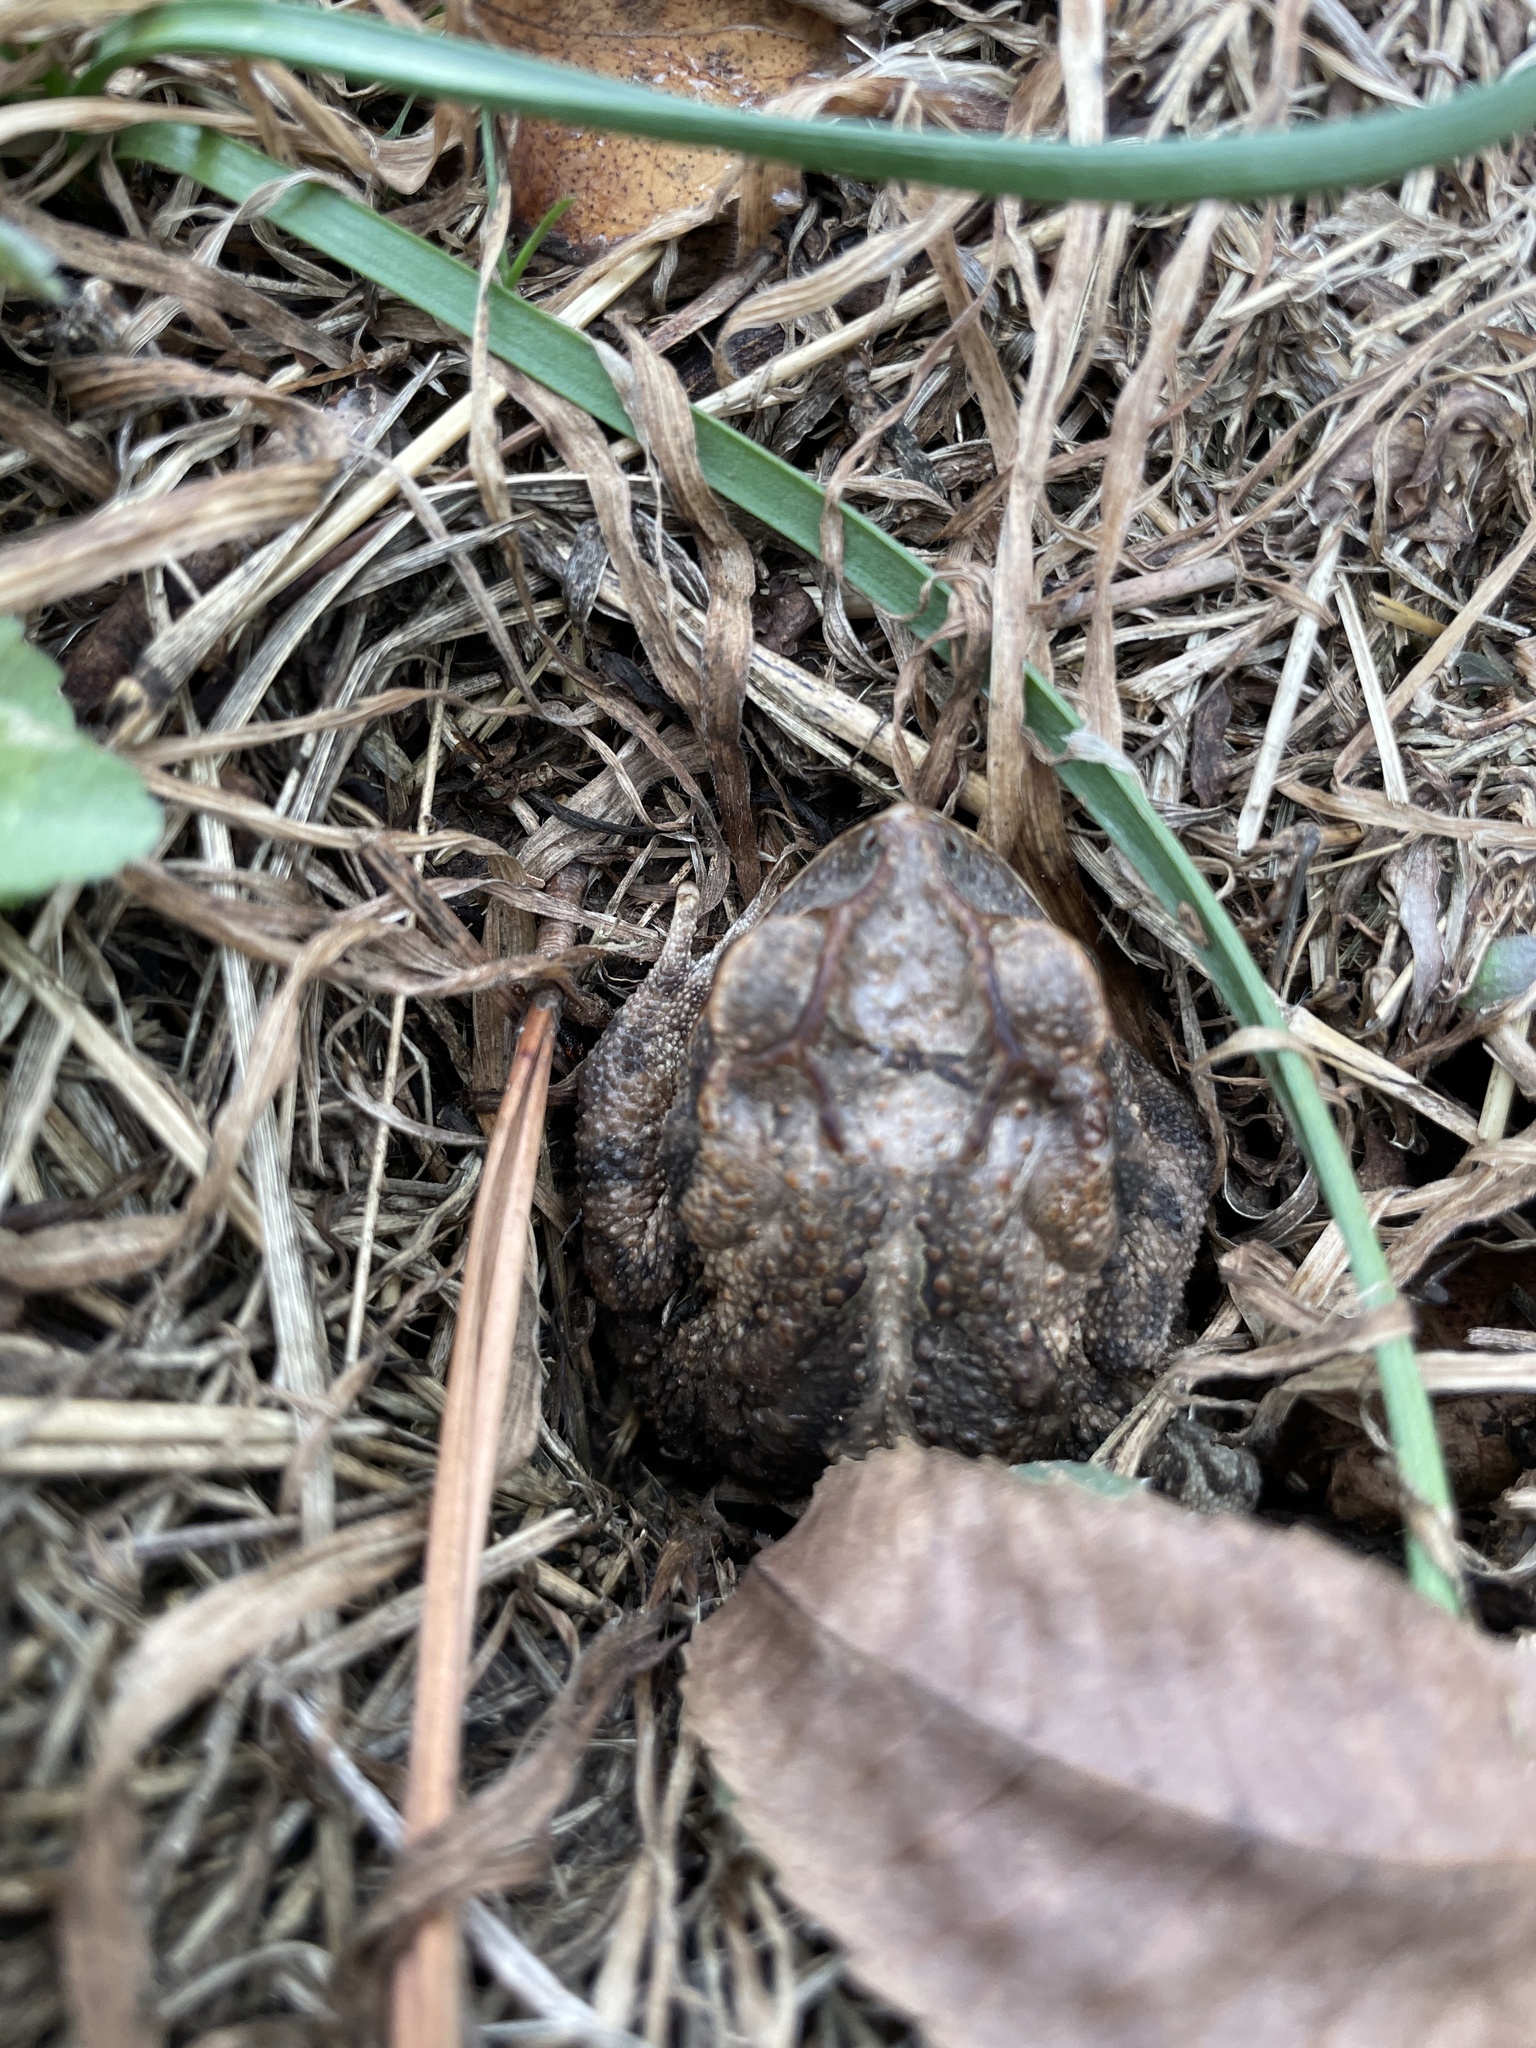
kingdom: Animalia
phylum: Chordata
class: Amphibia
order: Anura
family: Bufonidae
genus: Incilius
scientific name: Incilius nebulifer
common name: Gulf coast toad
